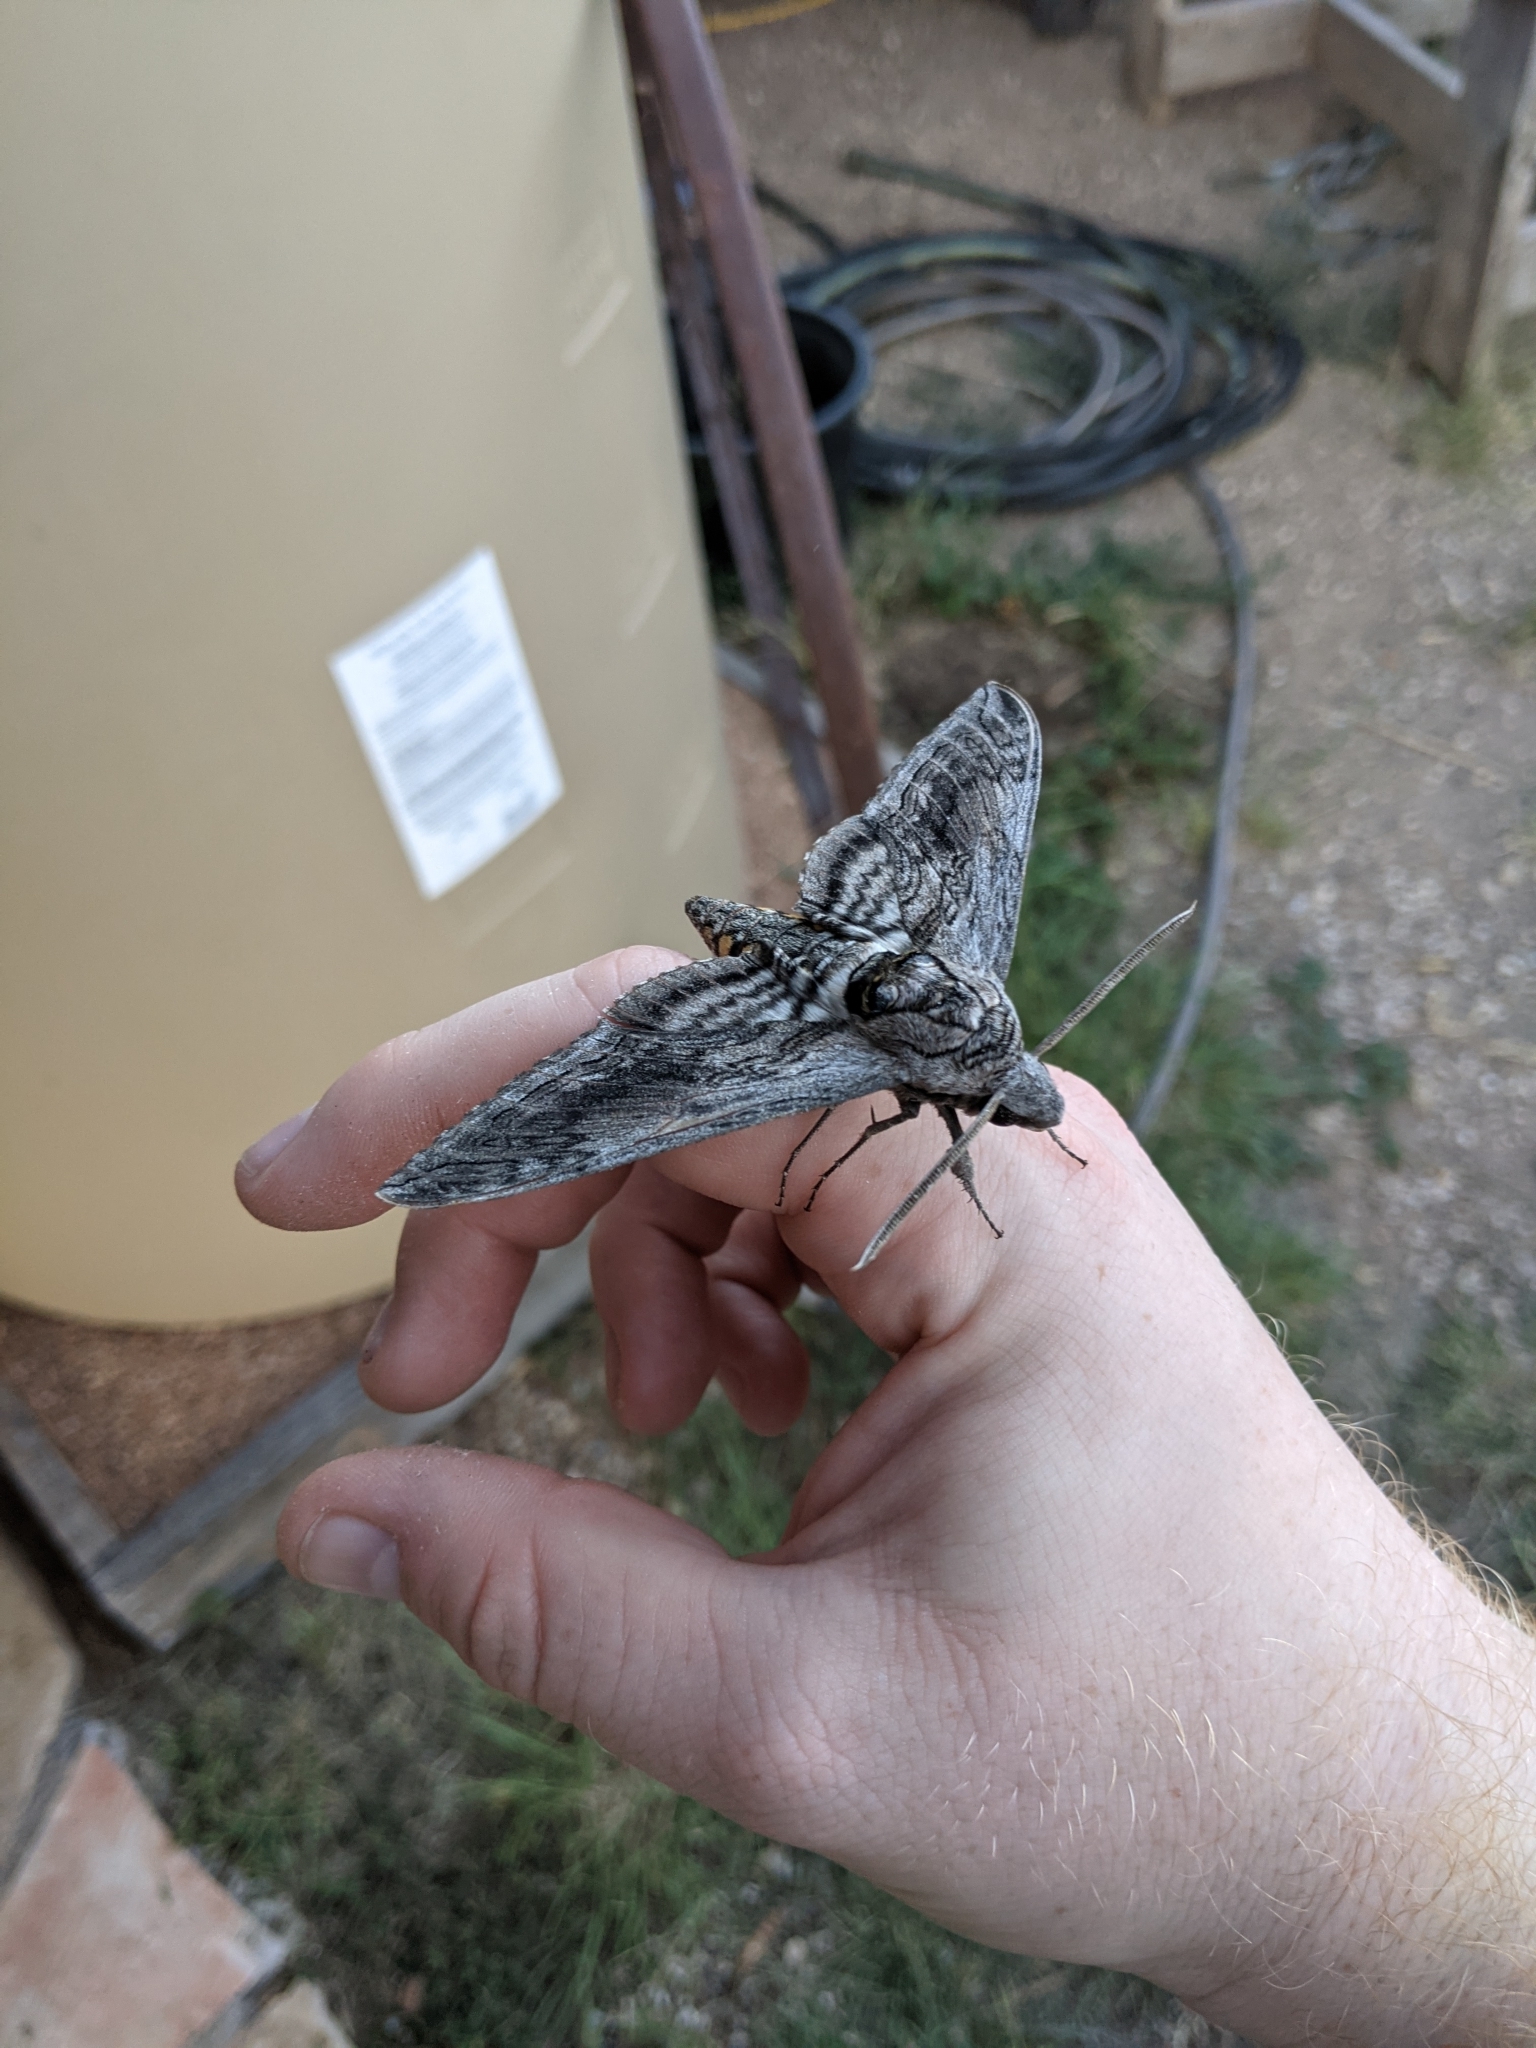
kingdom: Animalia
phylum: Arthropoda
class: Insecta
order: Lepidoptera
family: Sphingidae
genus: Manduca
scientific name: Manduca quinquemaculatus
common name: Five-spotted hawk-moth
